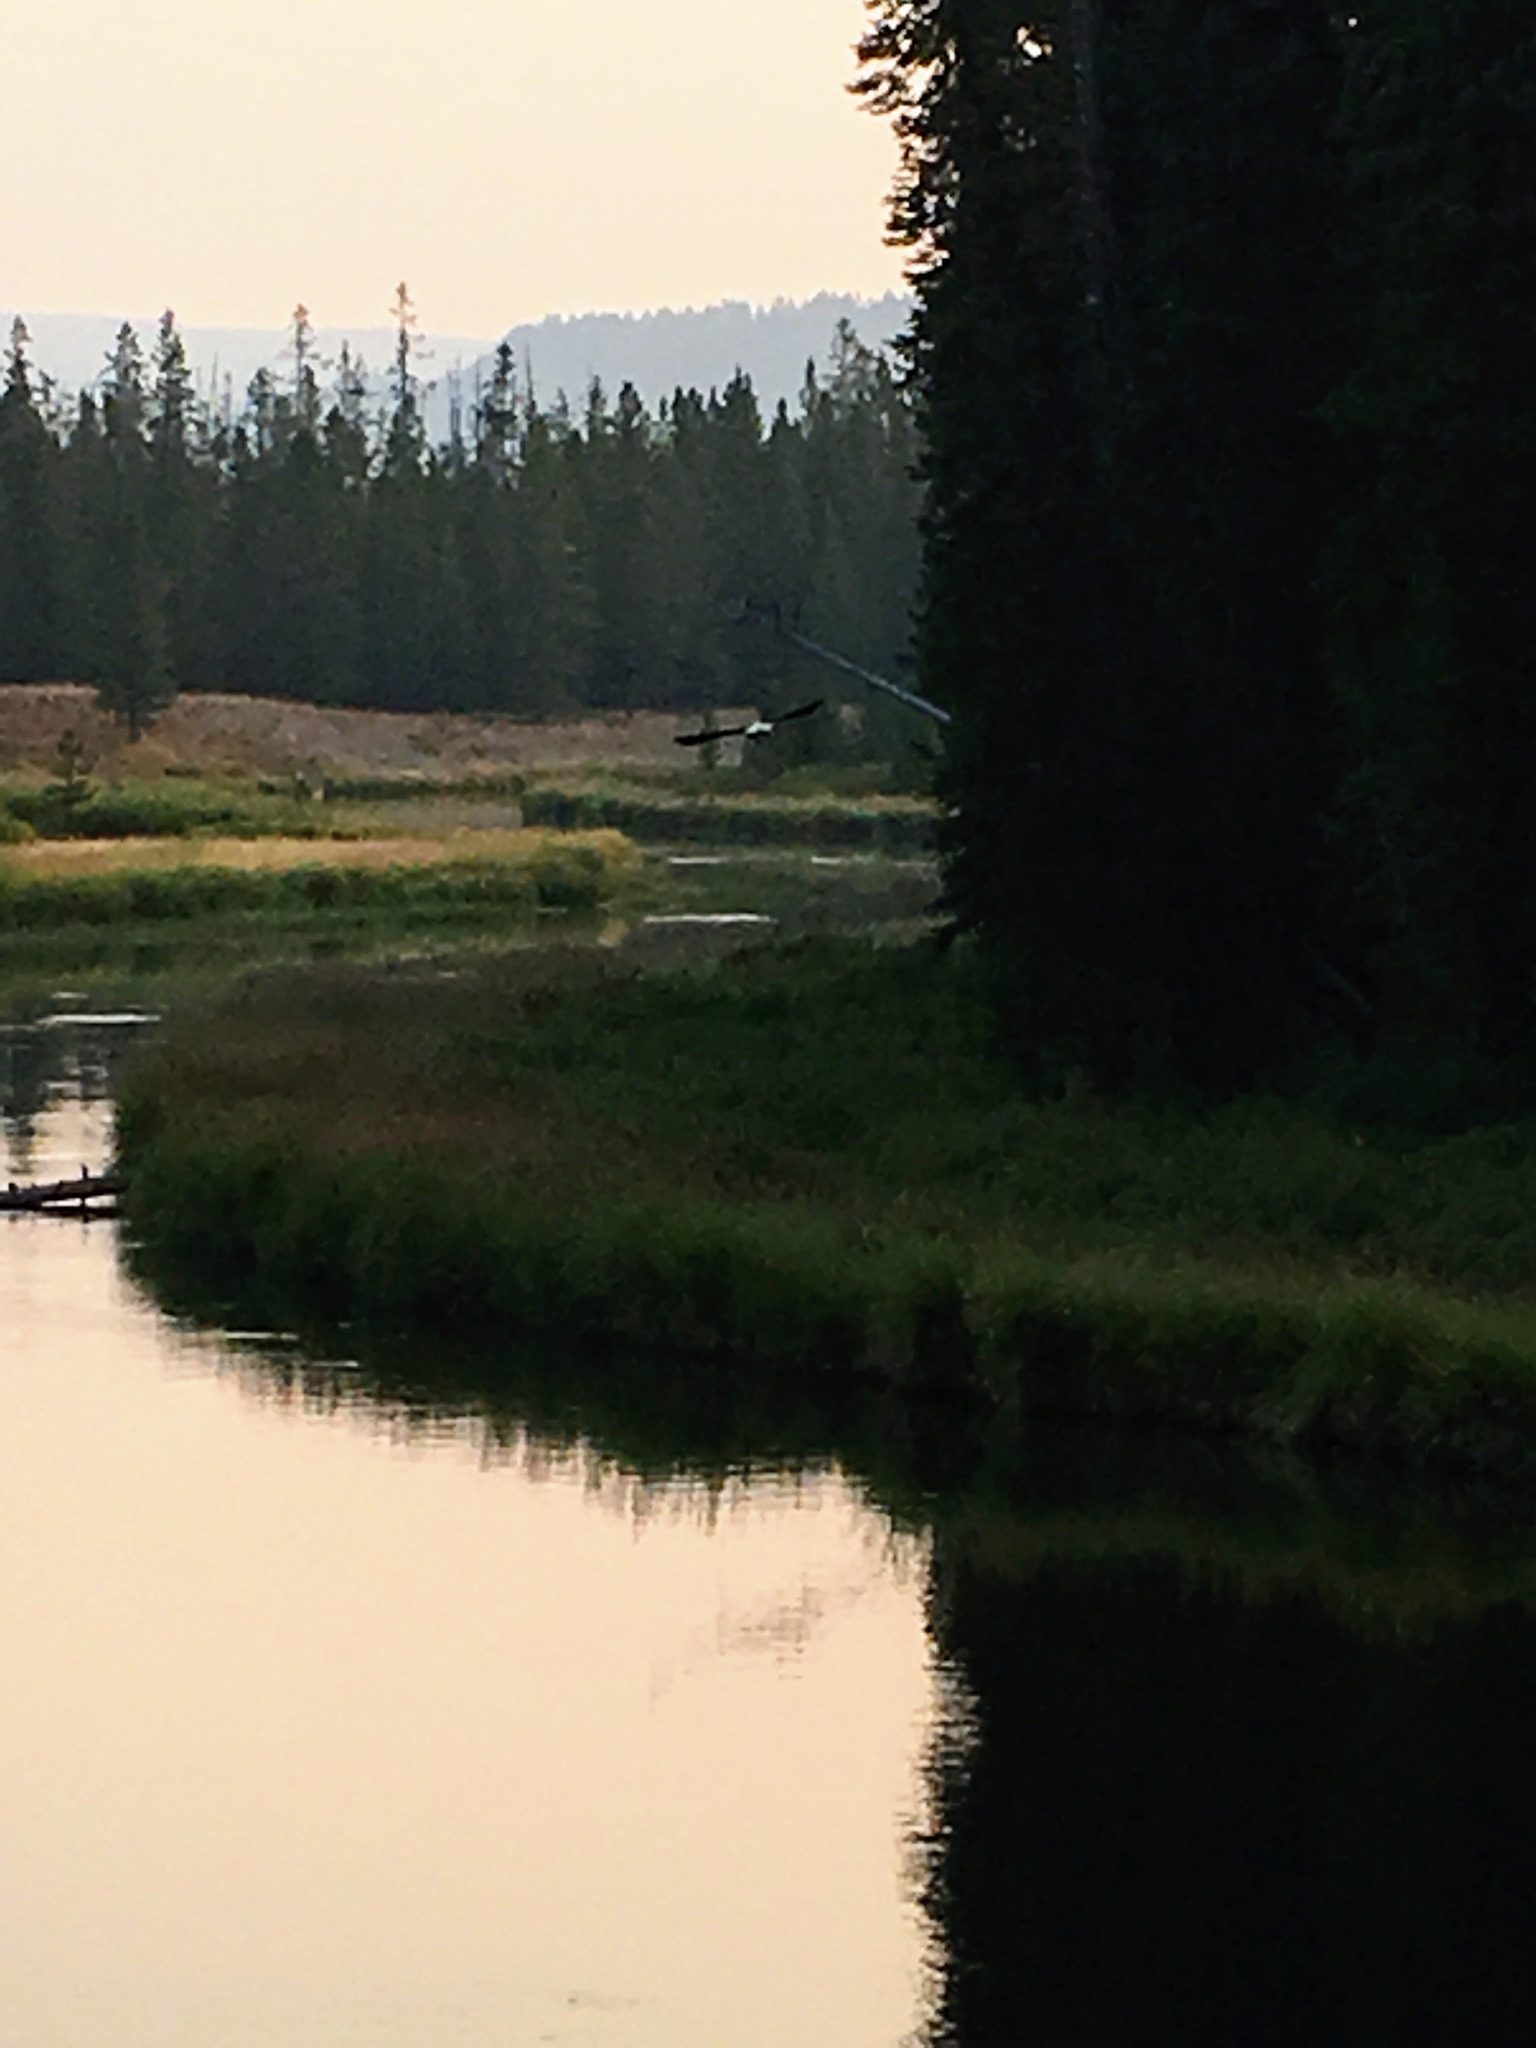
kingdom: Animalia
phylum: Chordata
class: Aves
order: Accipitriformes
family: Accipitridae
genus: Haliaeetus
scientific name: Haliaeetus leucocephalus
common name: Bald eagle
